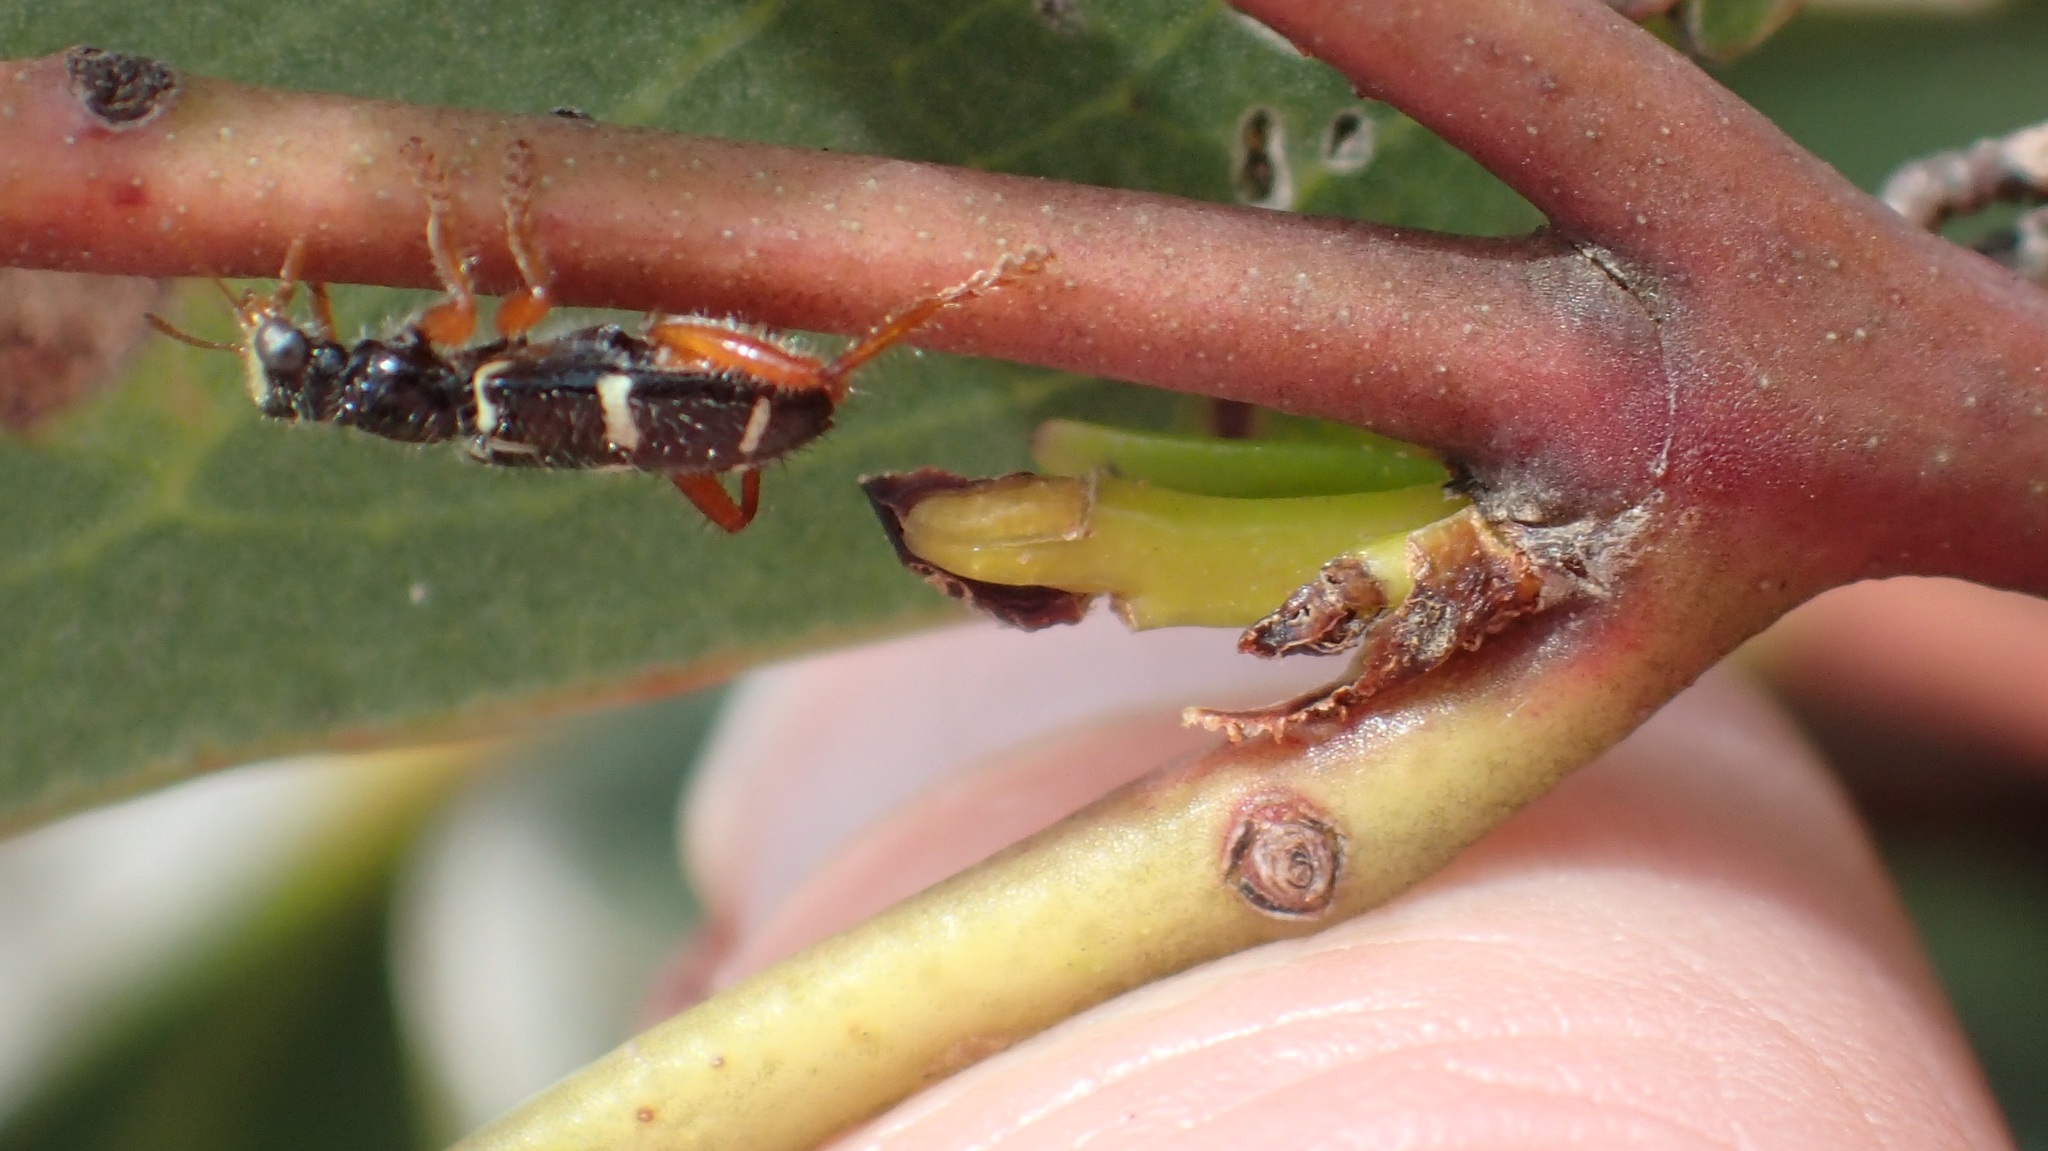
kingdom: Animalia
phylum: Arthropoda
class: Insecta
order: Coleoptera
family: Cleridae
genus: Lemidia
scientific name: Lemidia nitens
